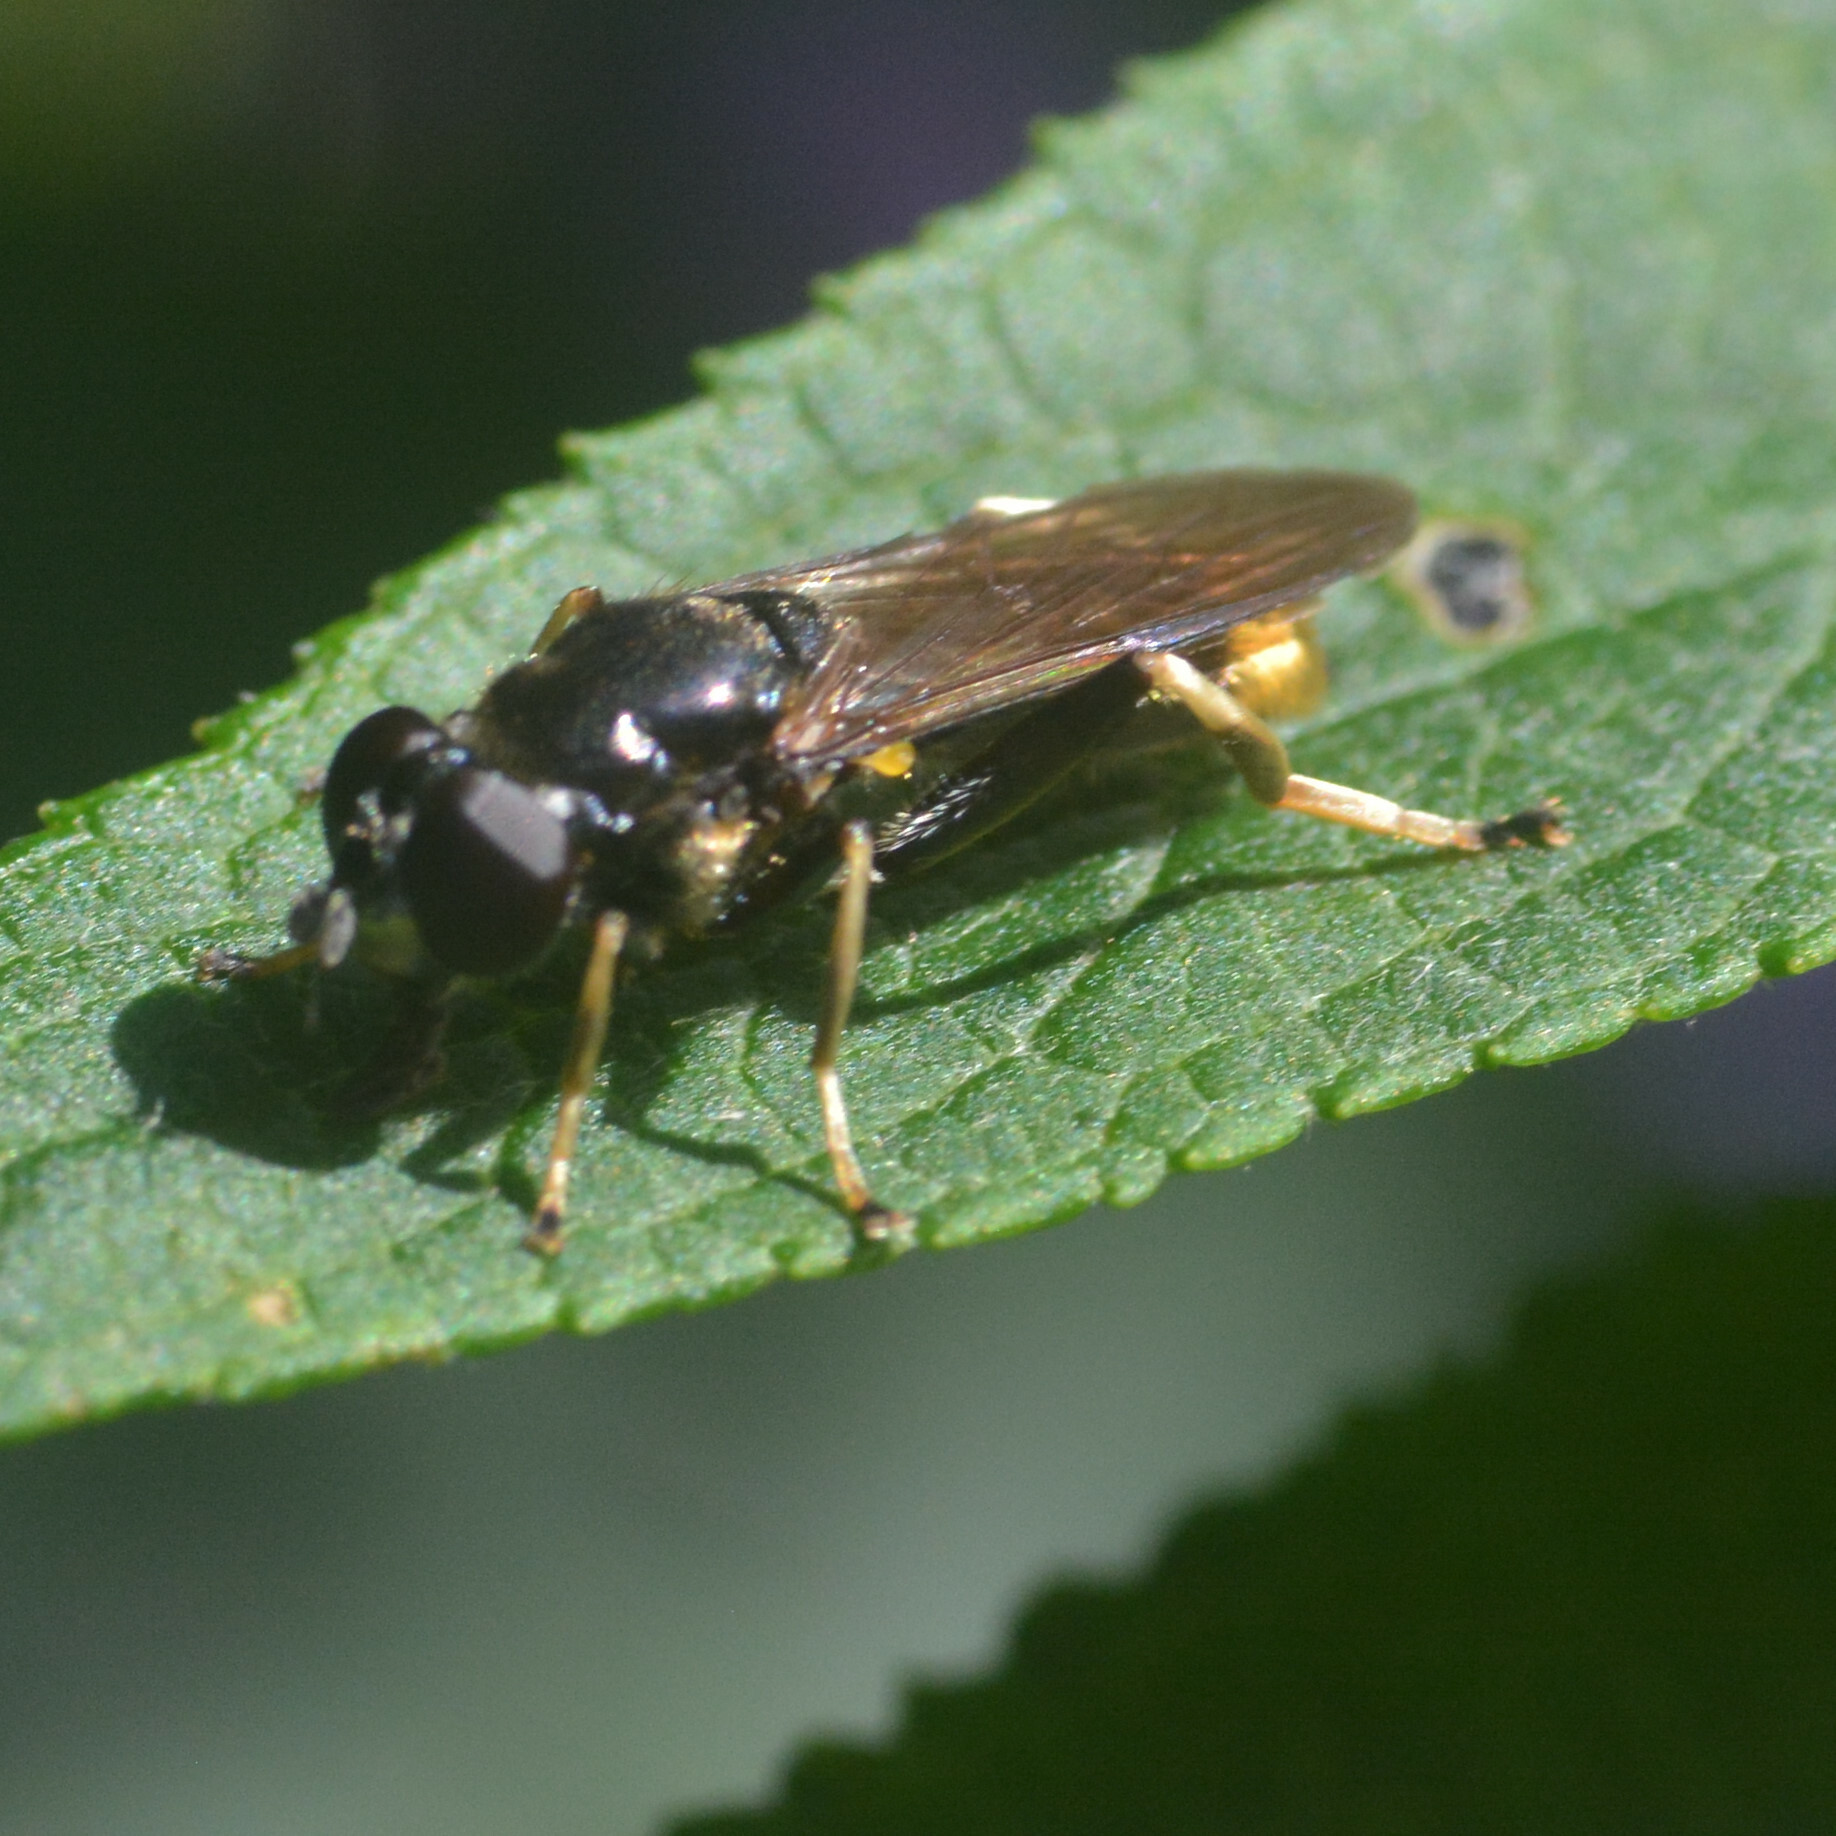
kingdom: Animalia
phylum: Arthropoda
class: Insecta
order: Diptera
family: Syrphidae
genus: Xylota
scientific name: Xylota sylvarum
